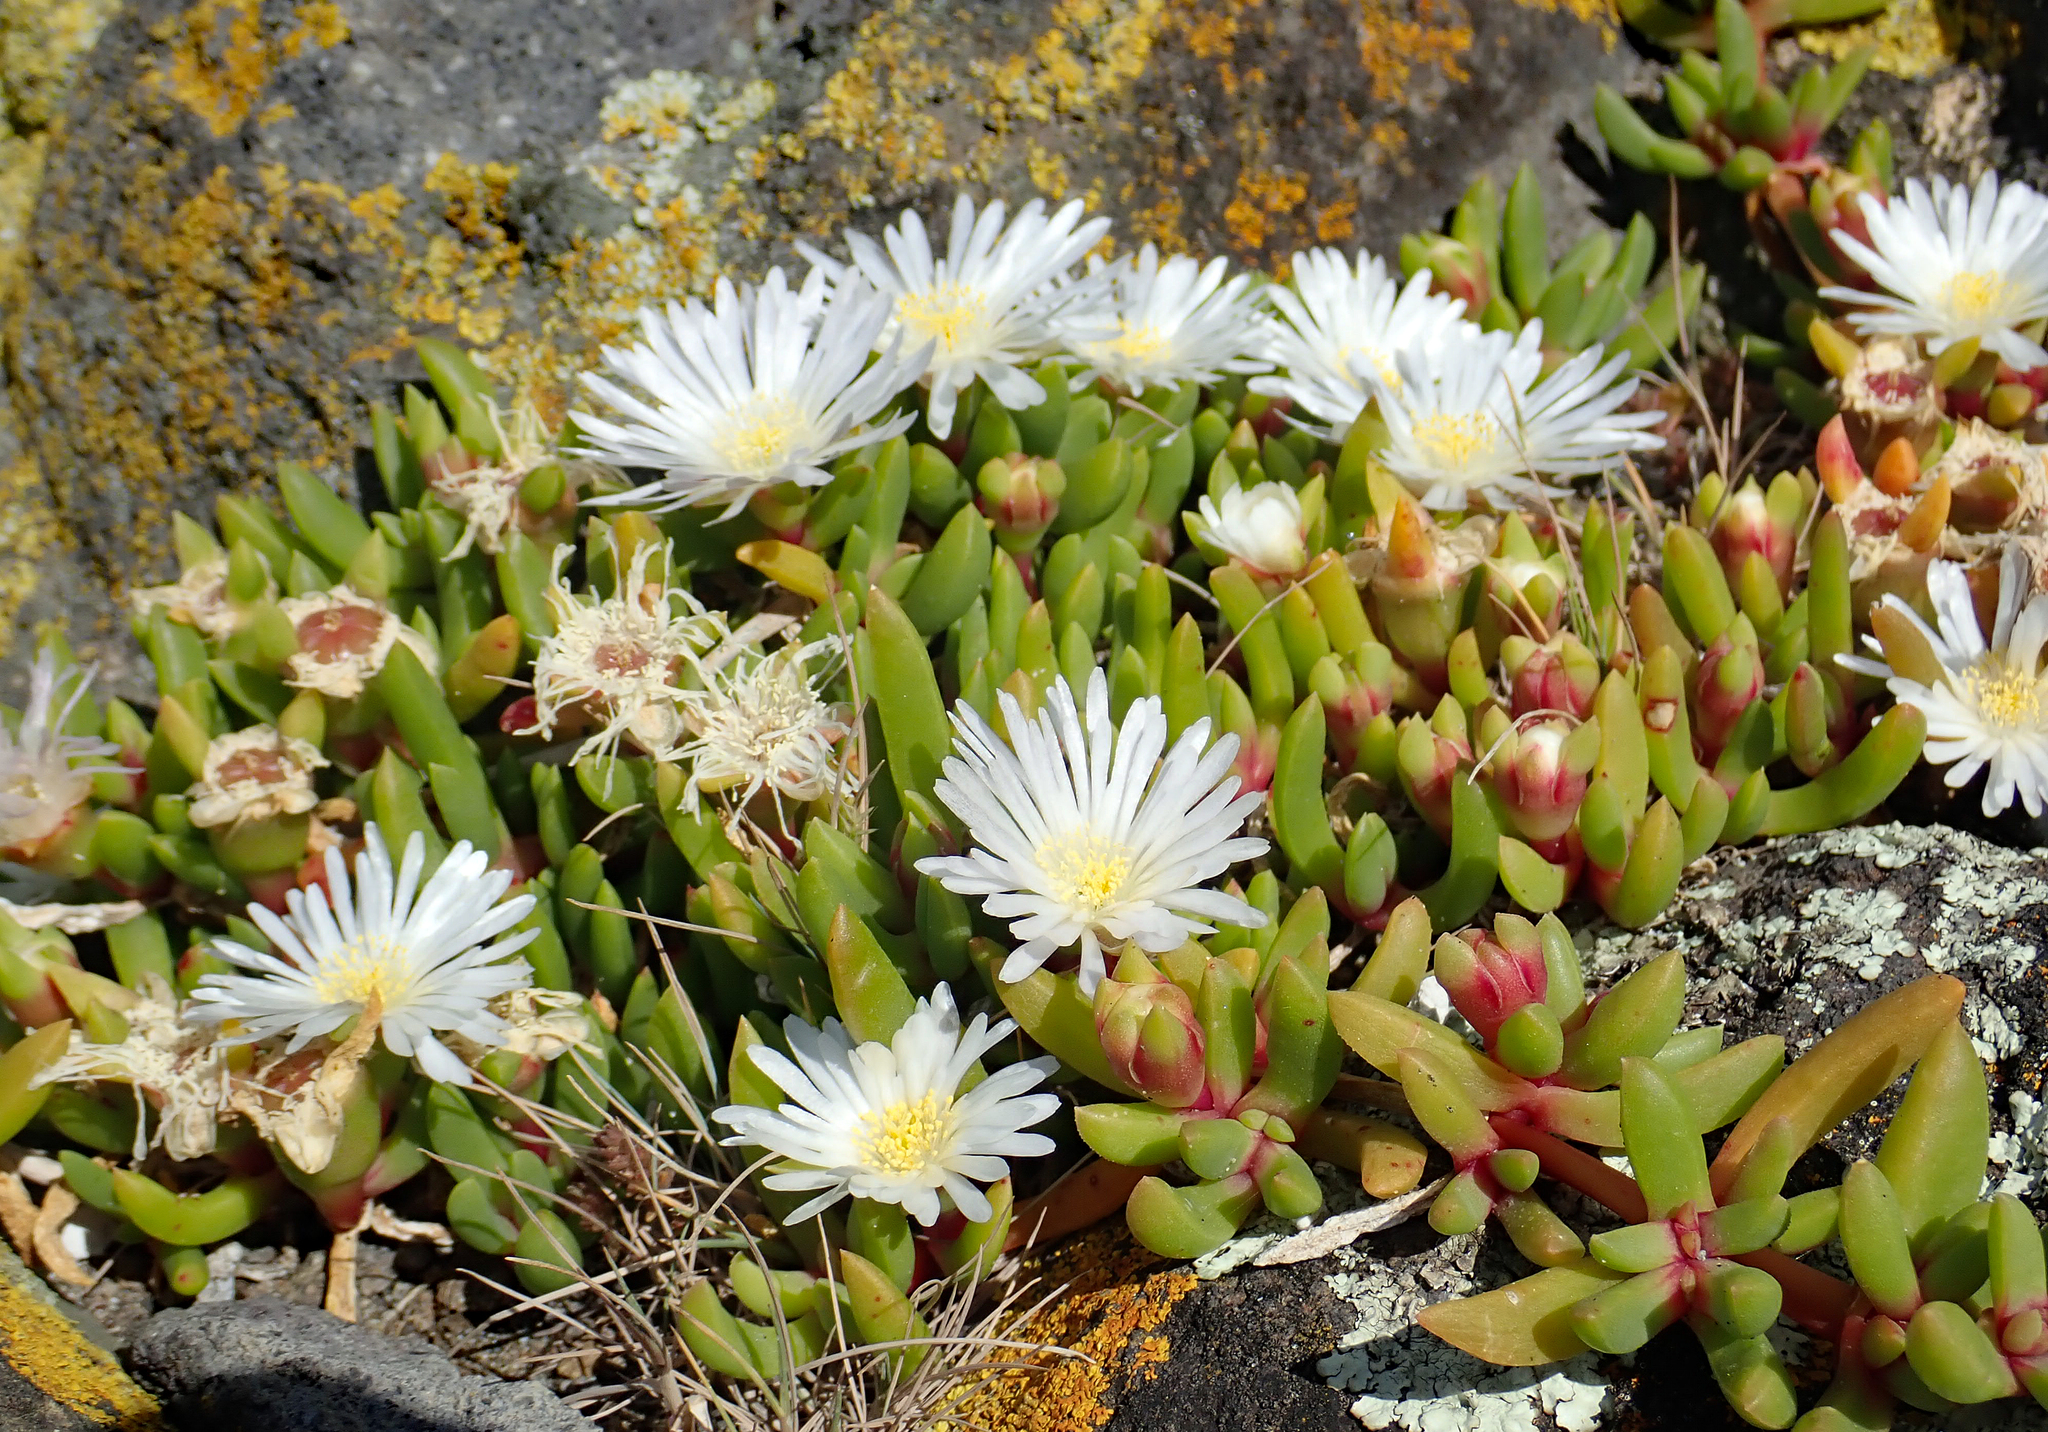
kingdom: Plantae
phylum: Tracheophyta
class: Magnoliopsida
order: Caryophyllales
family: Aizoaceae
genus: Disphyma
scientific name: Disphyma australe
